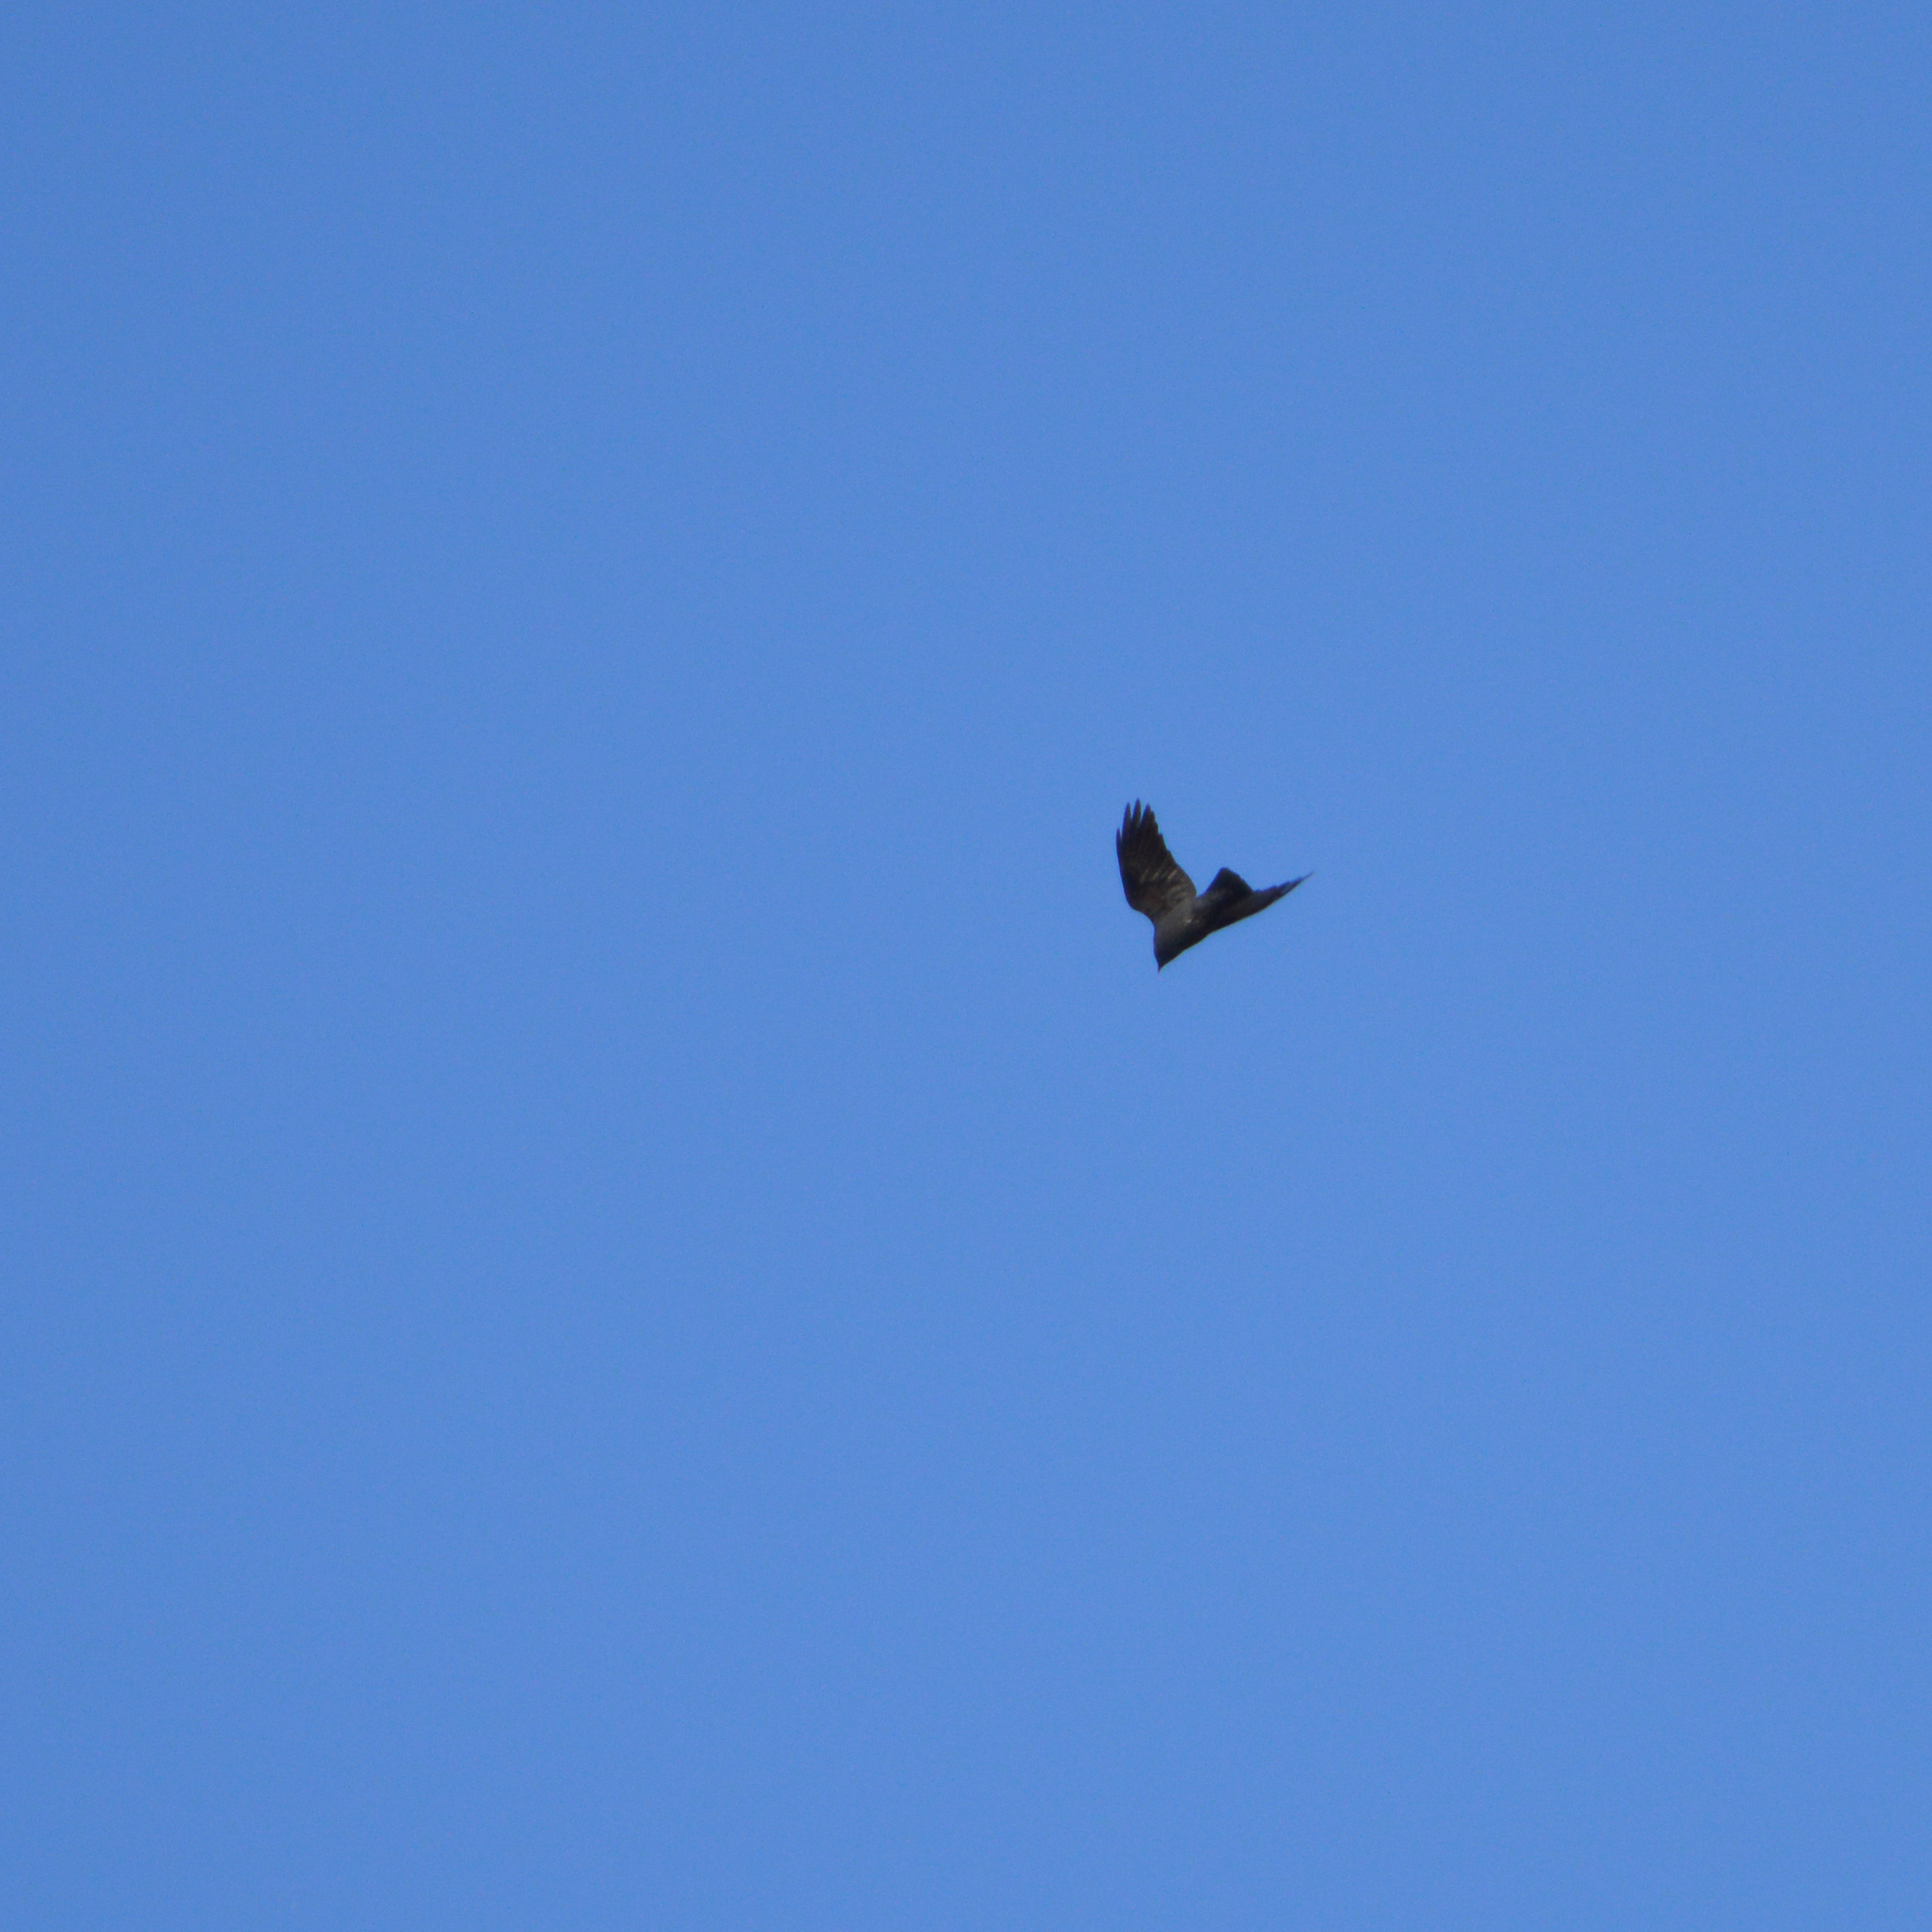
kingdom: Animalia
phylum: Chordata
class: Aves
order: Passeriformes
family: Corvidae
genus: Coloeus
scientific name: Coloeus monedula
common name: Western jackdaw
